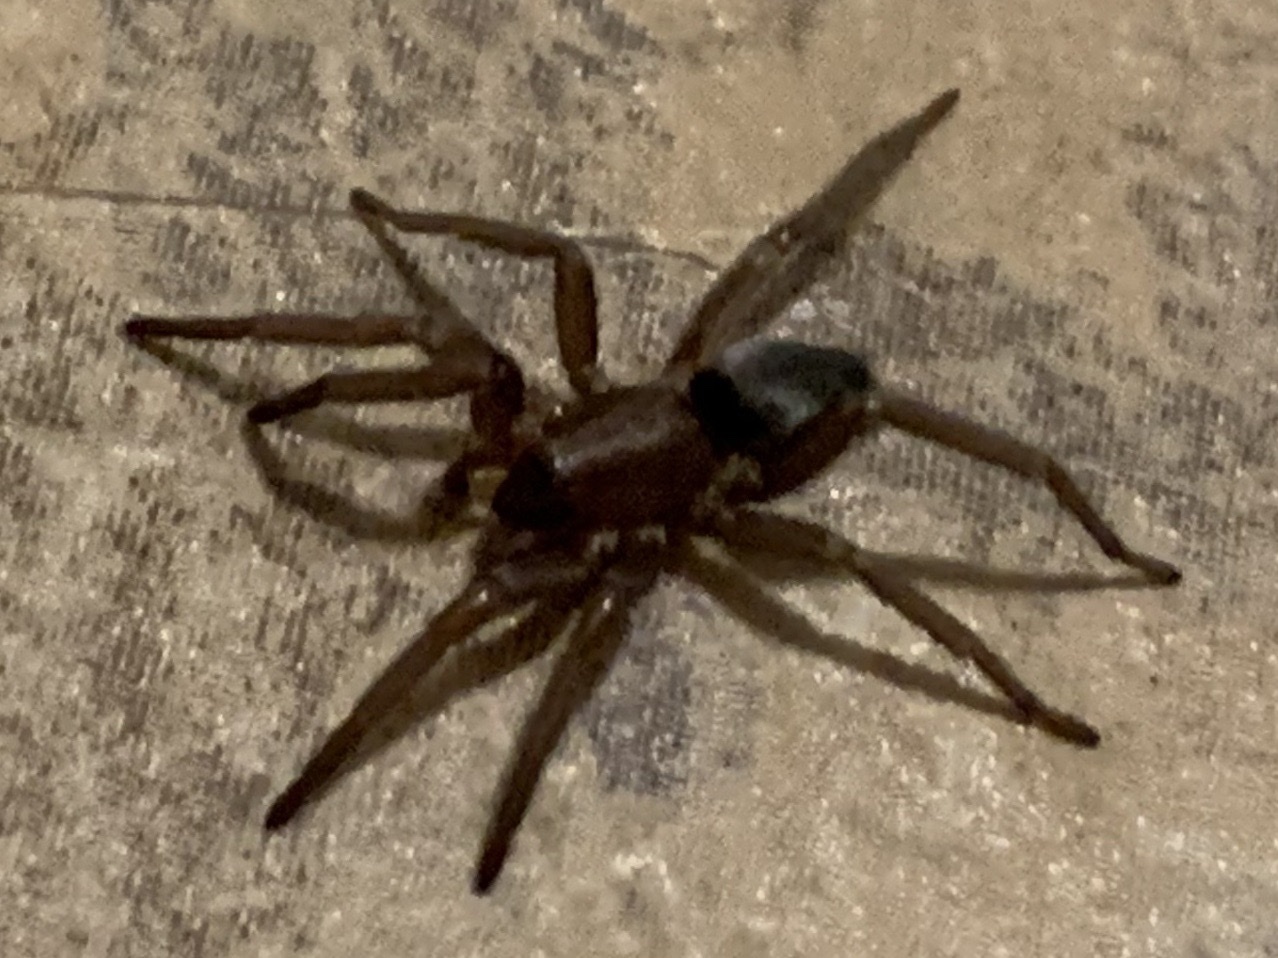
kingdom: Animalia
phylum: Arthropoda
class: Arachnida
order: Araneae
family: Gnaphosidae
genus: Scotophaeus
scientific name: Scotophaeus blackwalli
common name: Mouse spider
